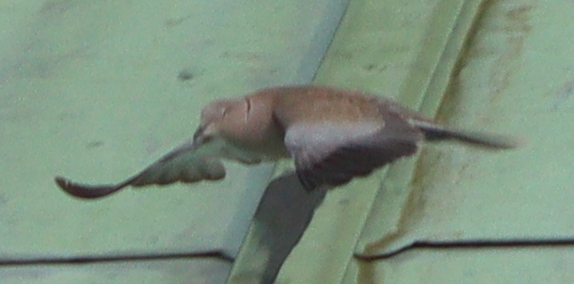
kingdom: Animalia
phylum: Chordata
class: Aves
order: Columbiformes
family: Columbidae
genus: Streptopelia
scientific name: Streptopelia decaocto
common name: Eurasian collared dove
